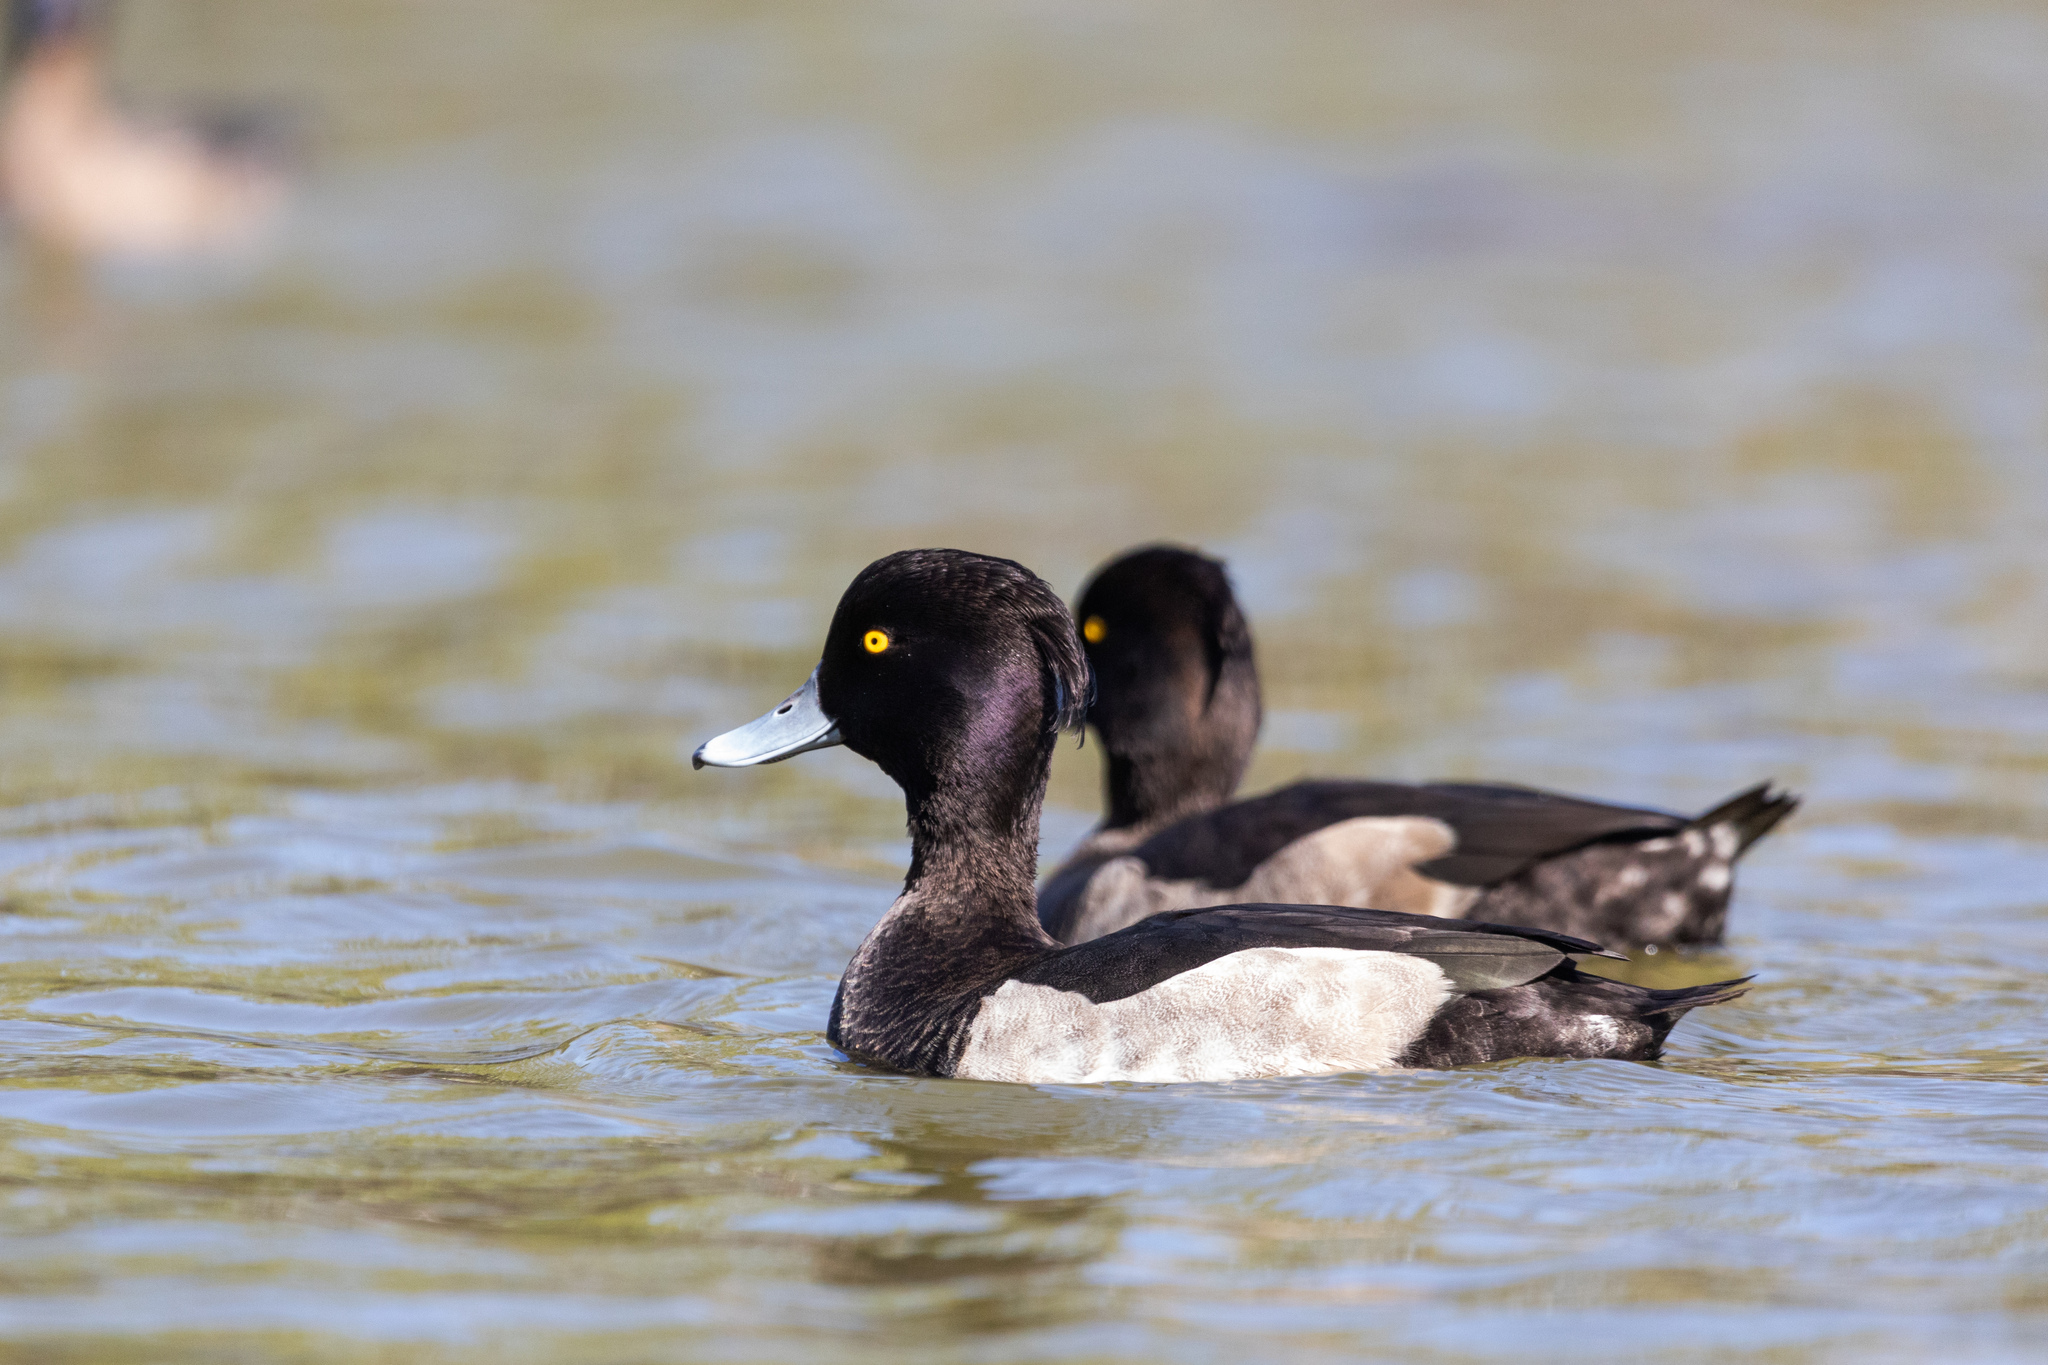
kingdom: Animalia
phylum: Chordata
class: Aves
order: Anseriformes
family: Anatidae
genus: Aythya
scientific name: Aythya fuligula
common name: Tufted duck
